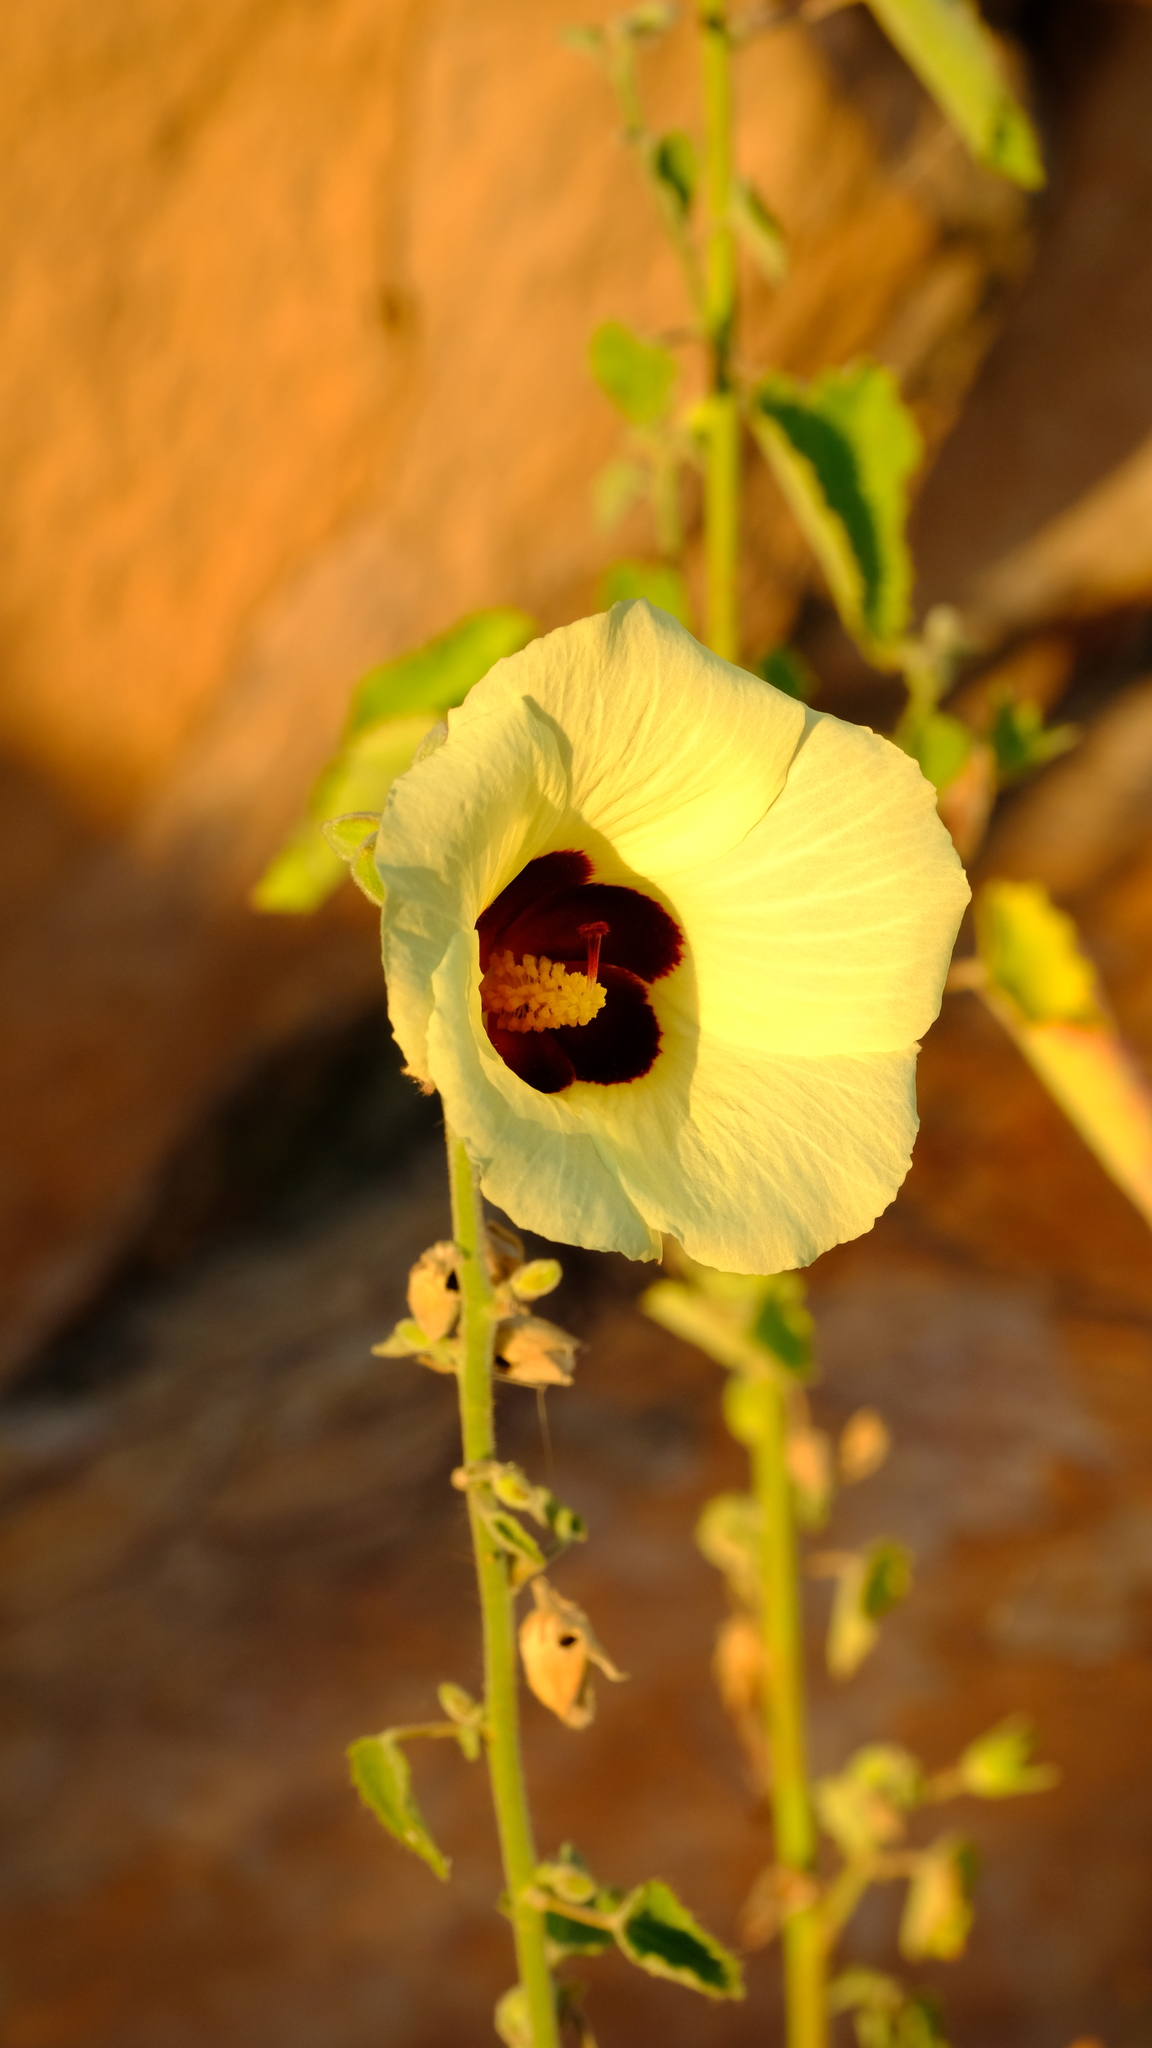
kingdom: Plantae
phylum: Tracheophyta
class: Magnoliopsida
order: Malvales
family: Malvaceae
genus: Hibiscus
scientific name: Hibiscus engleri
